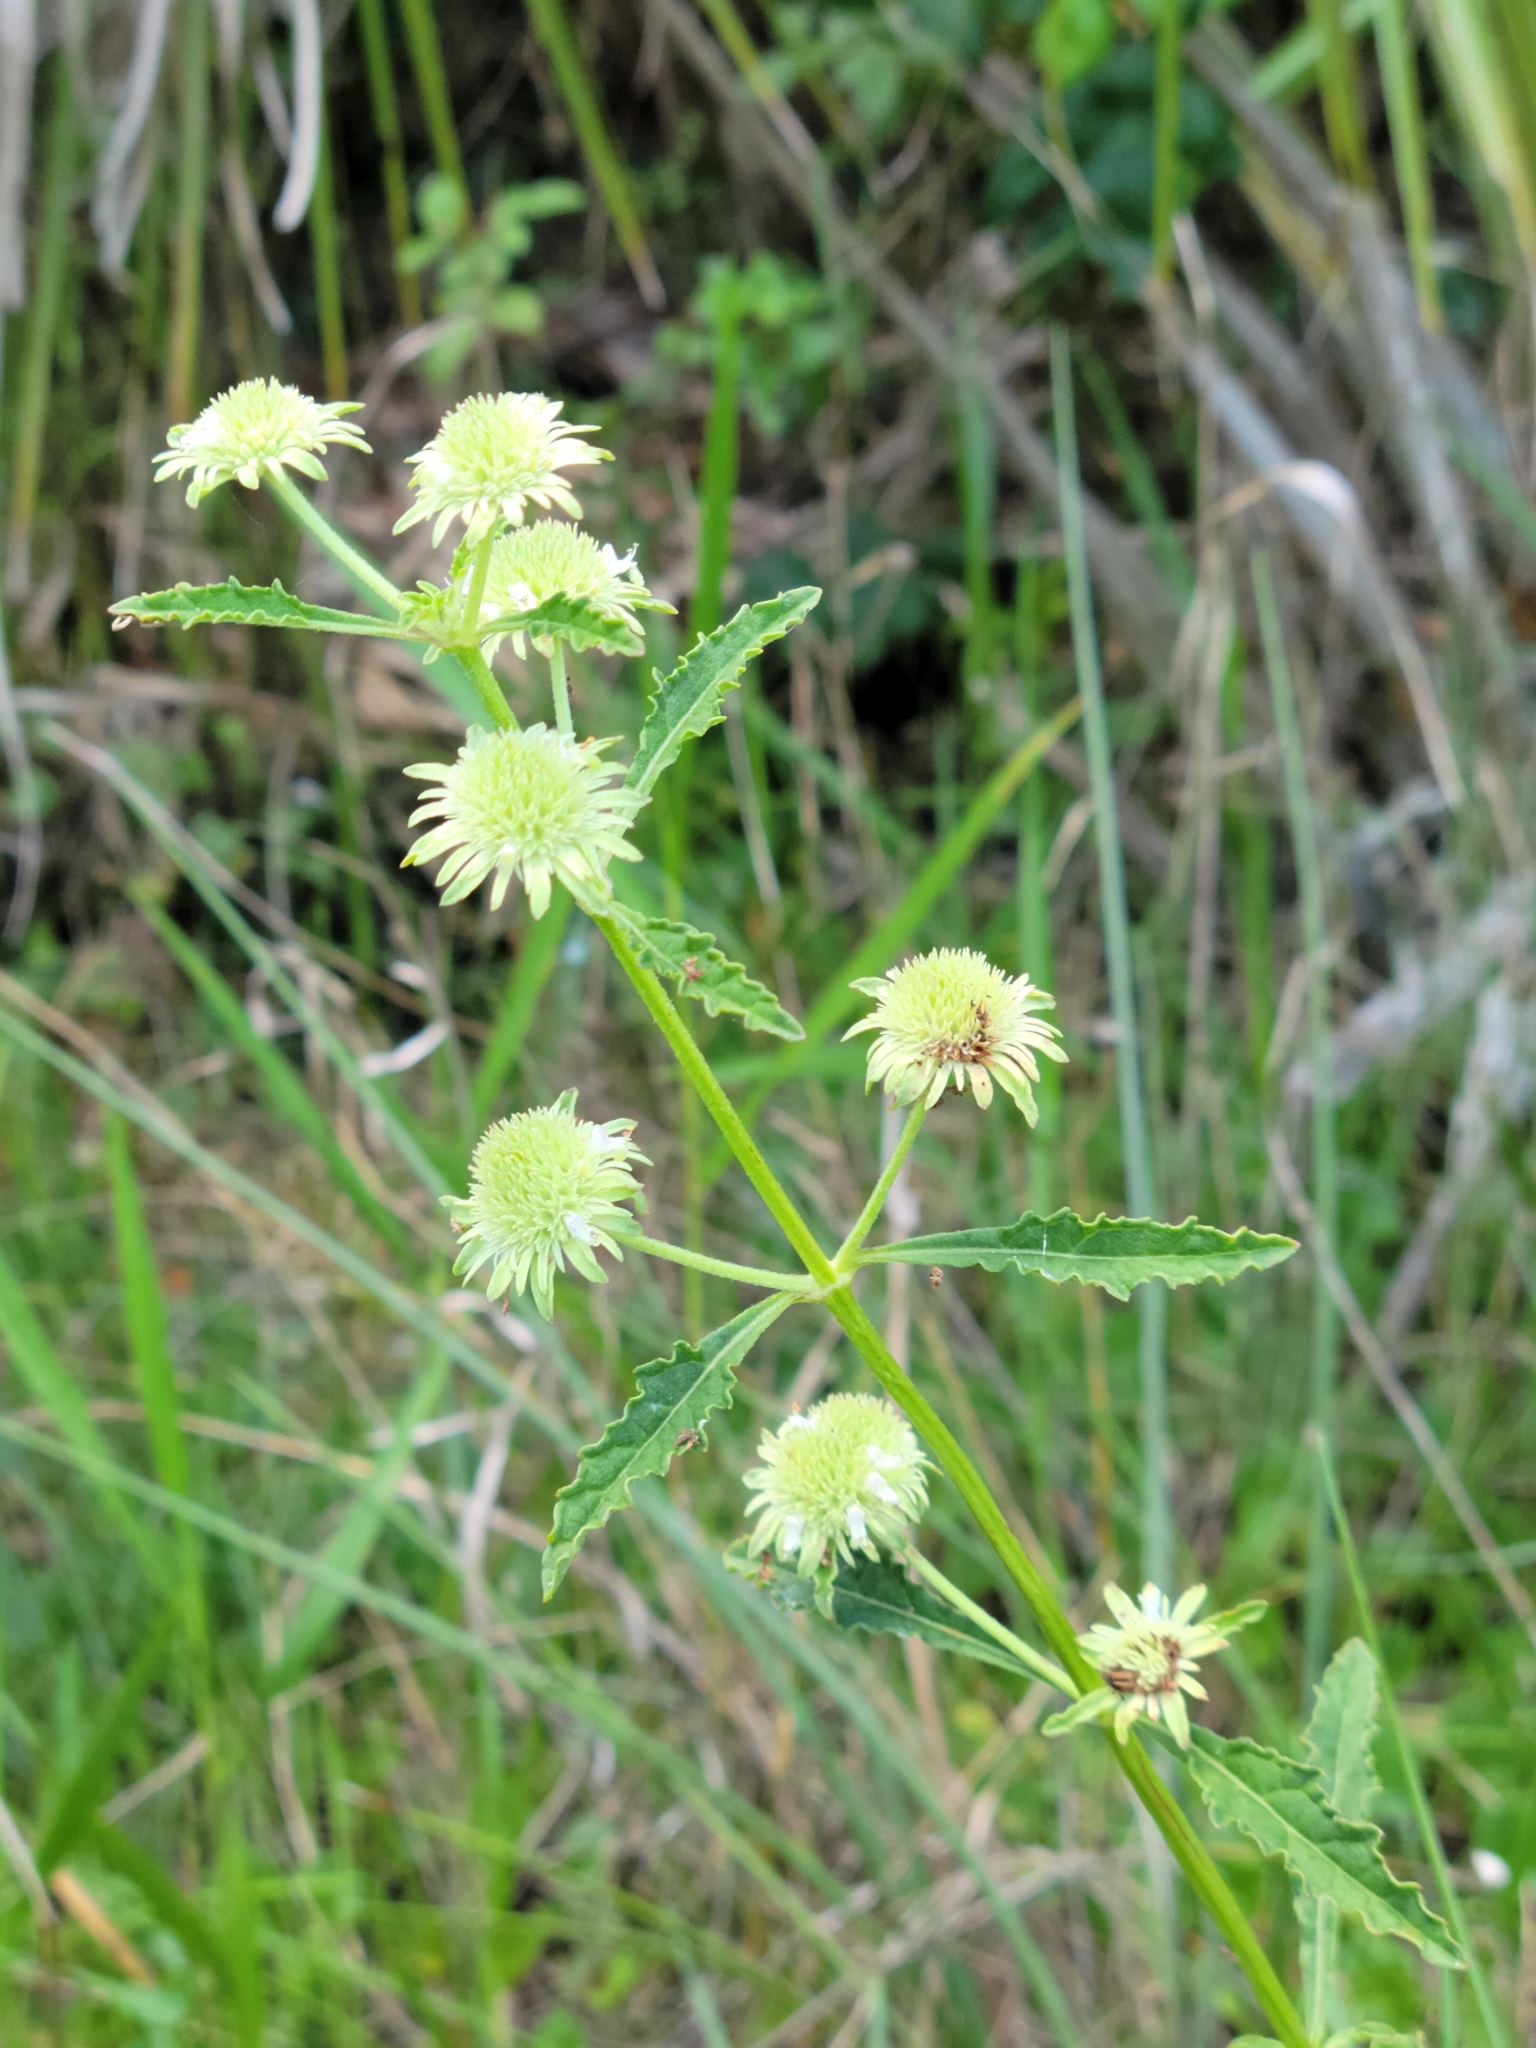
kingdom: Plantae
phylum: Tracheophyta
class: Magnoliopsida
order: Lamiales
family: Lamiaceae
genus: Hyptis
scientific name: Hyptis alata
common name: Cluster bush-mint
